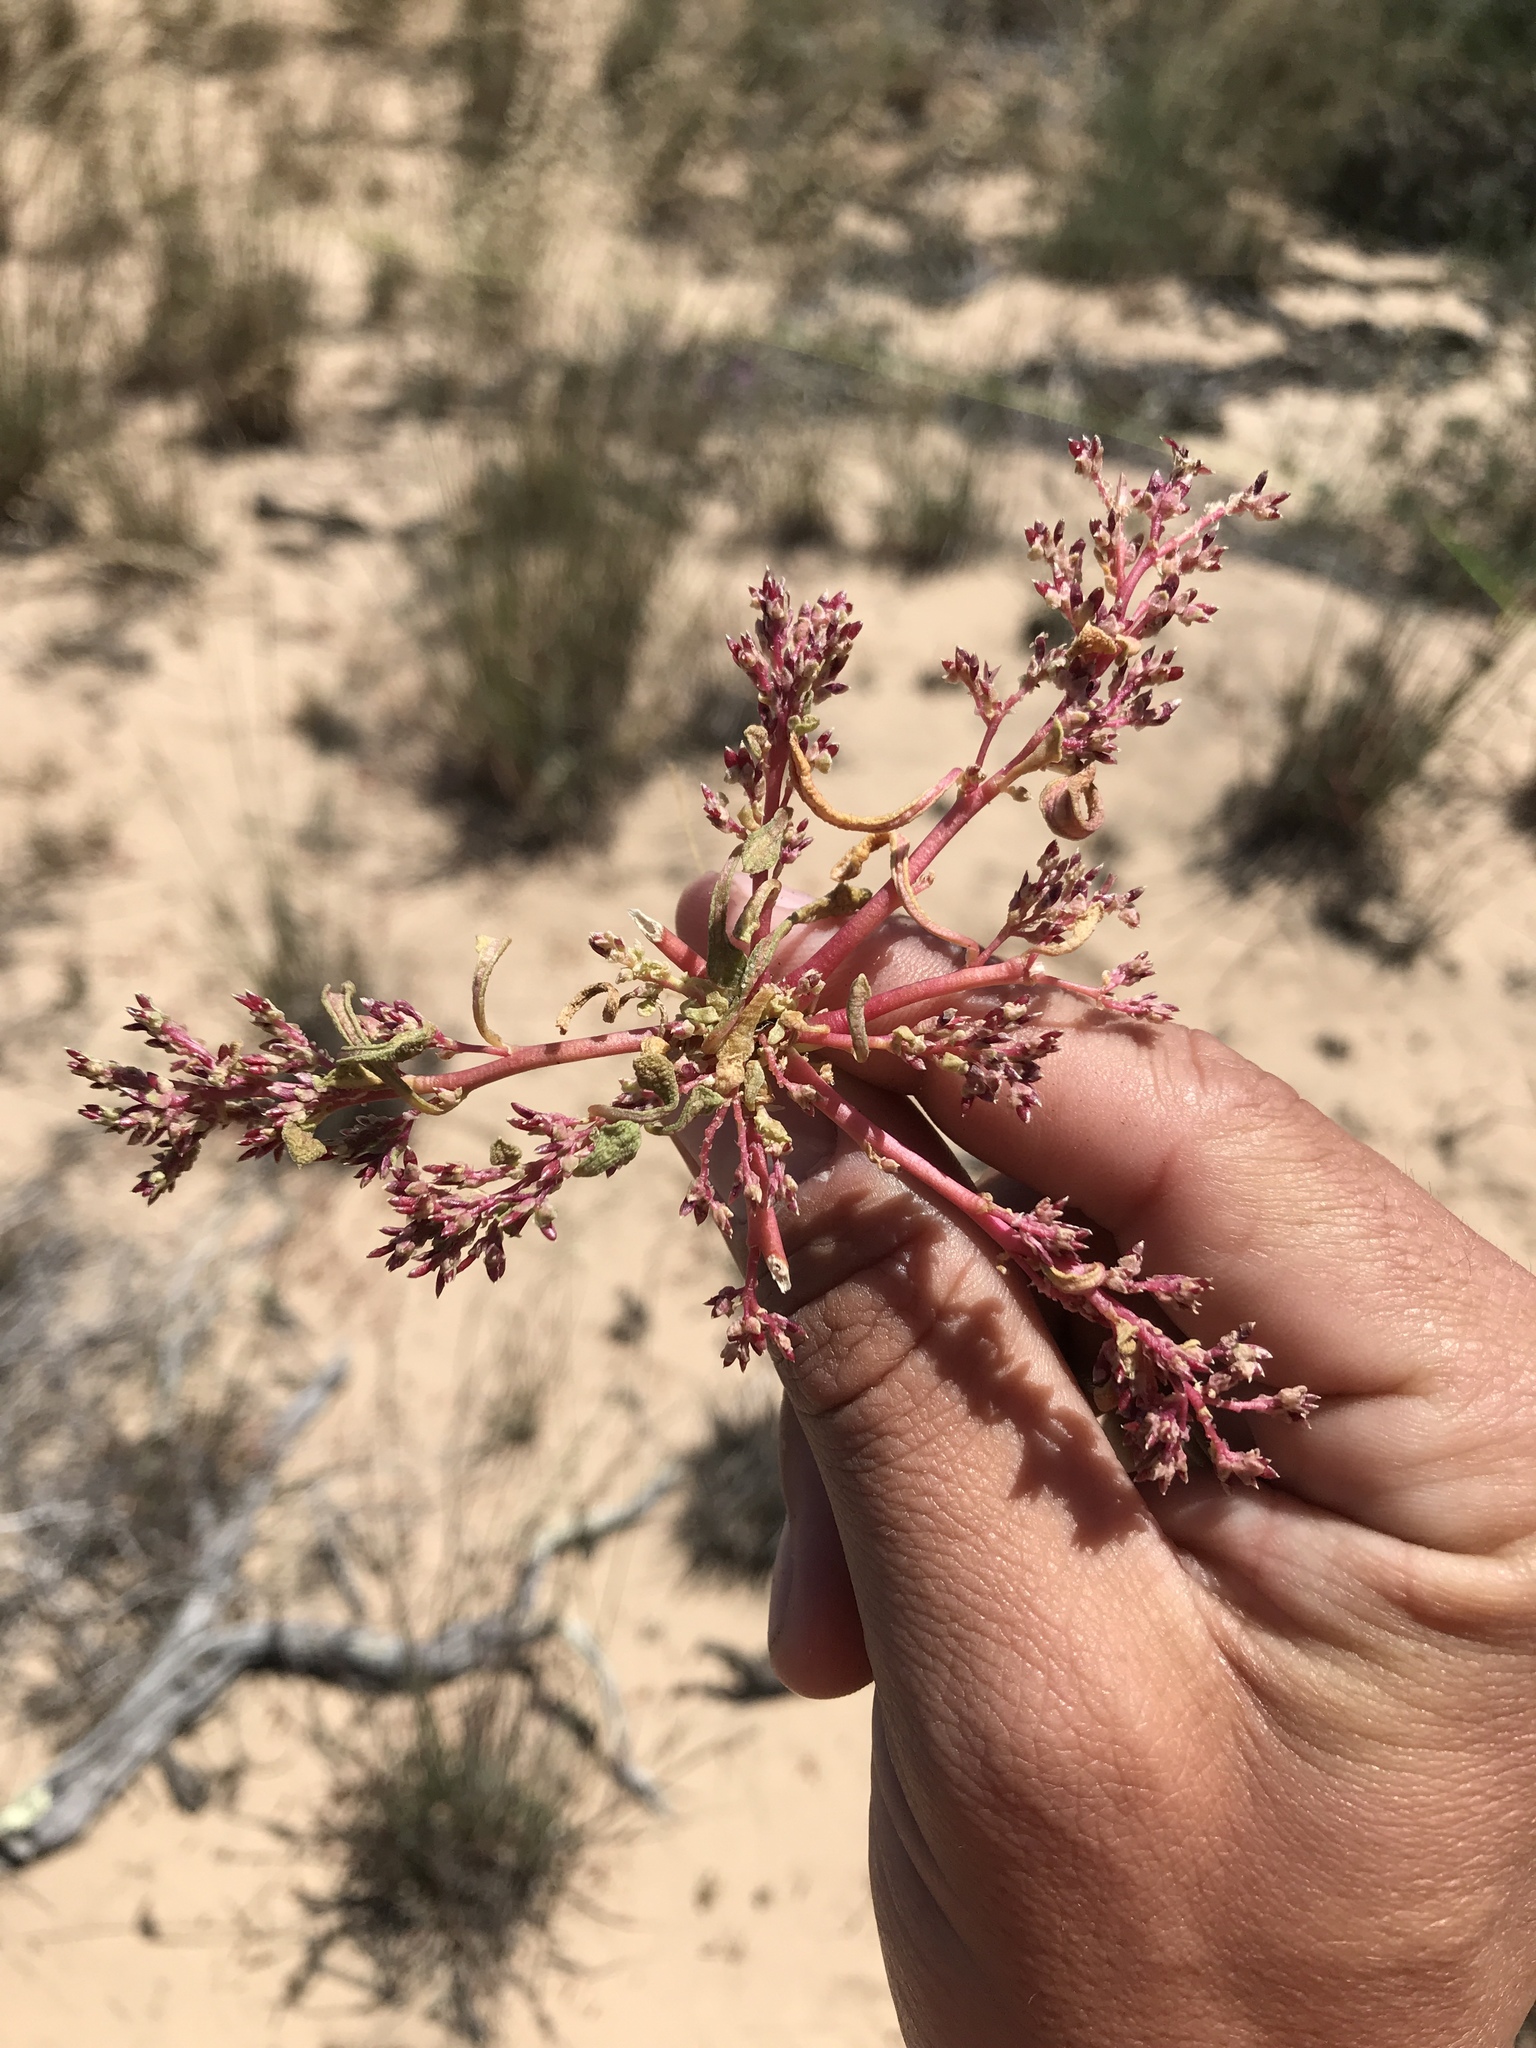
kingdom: Plantae
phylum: Tracheophyta
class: Magnoliopsida
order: Caryophyllales
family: Montiaceae
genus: Calyptridium
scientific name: Calyptridium monandrum
